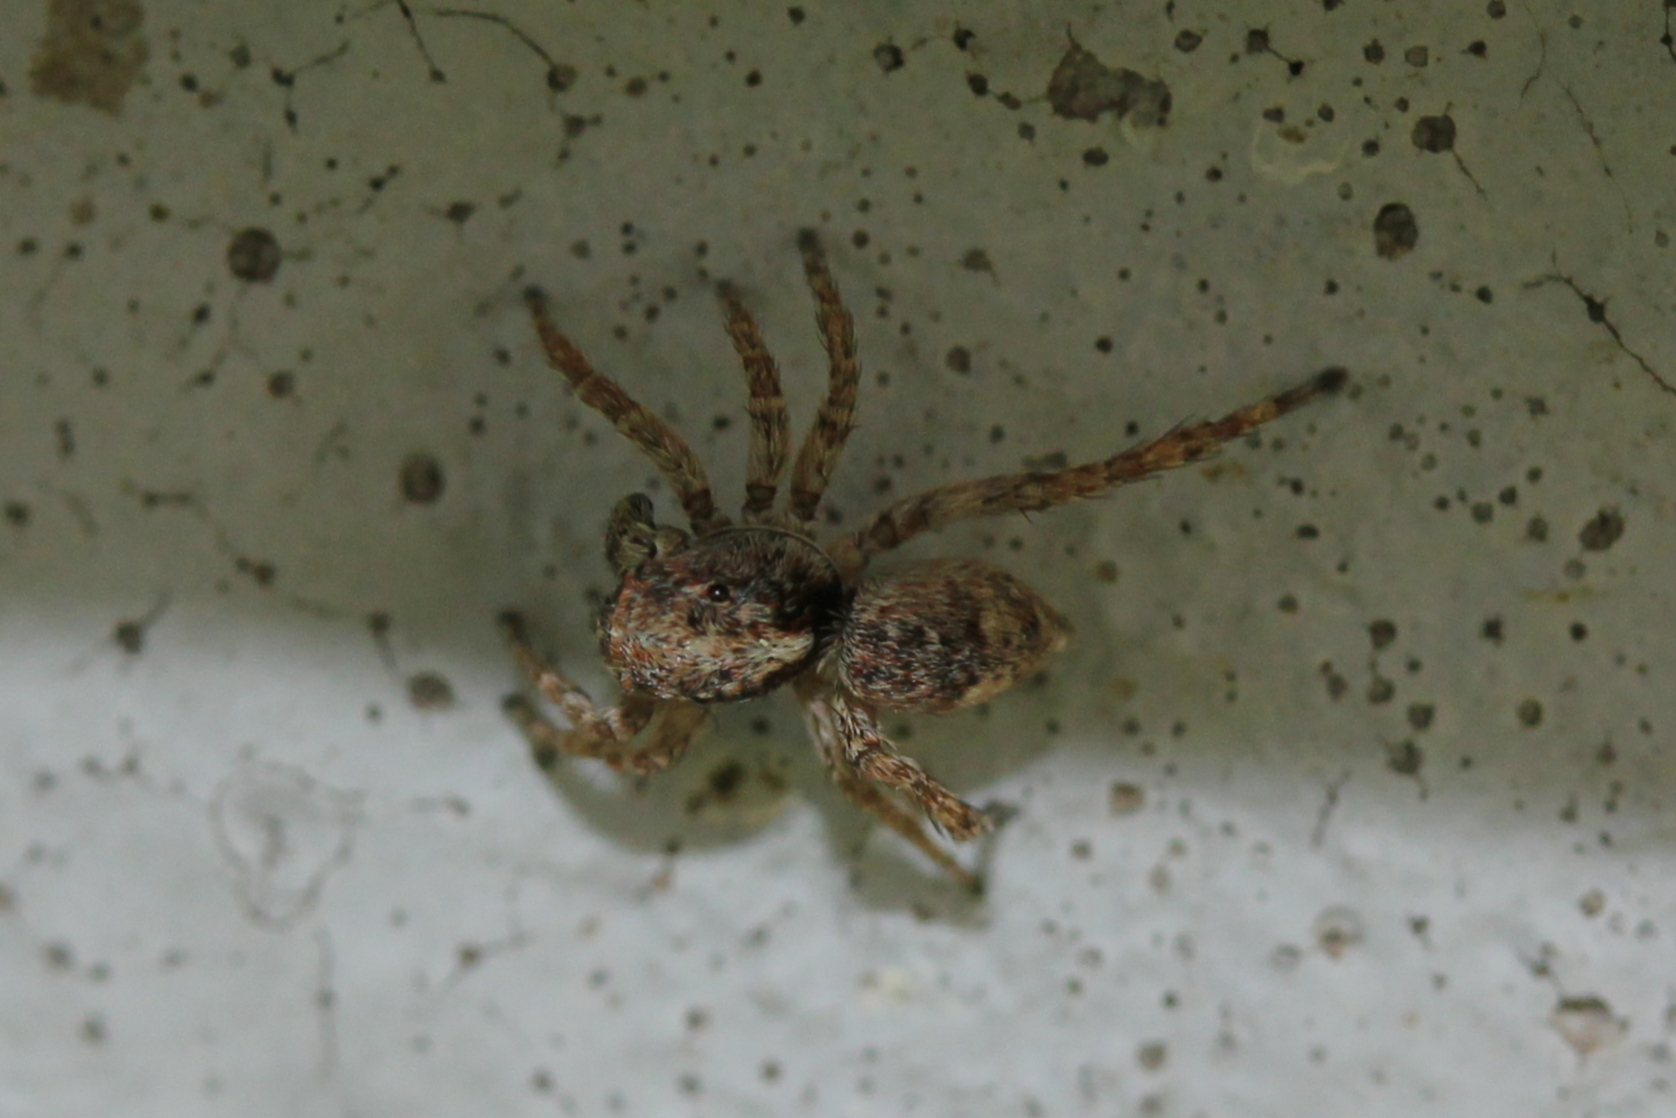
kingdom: Animalia
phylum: Arthropoda
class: Arachnida
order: Araneae
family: Salticidae
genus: Attulus
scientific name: Attulus fasciger
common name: Asiatic wall jumping spider
